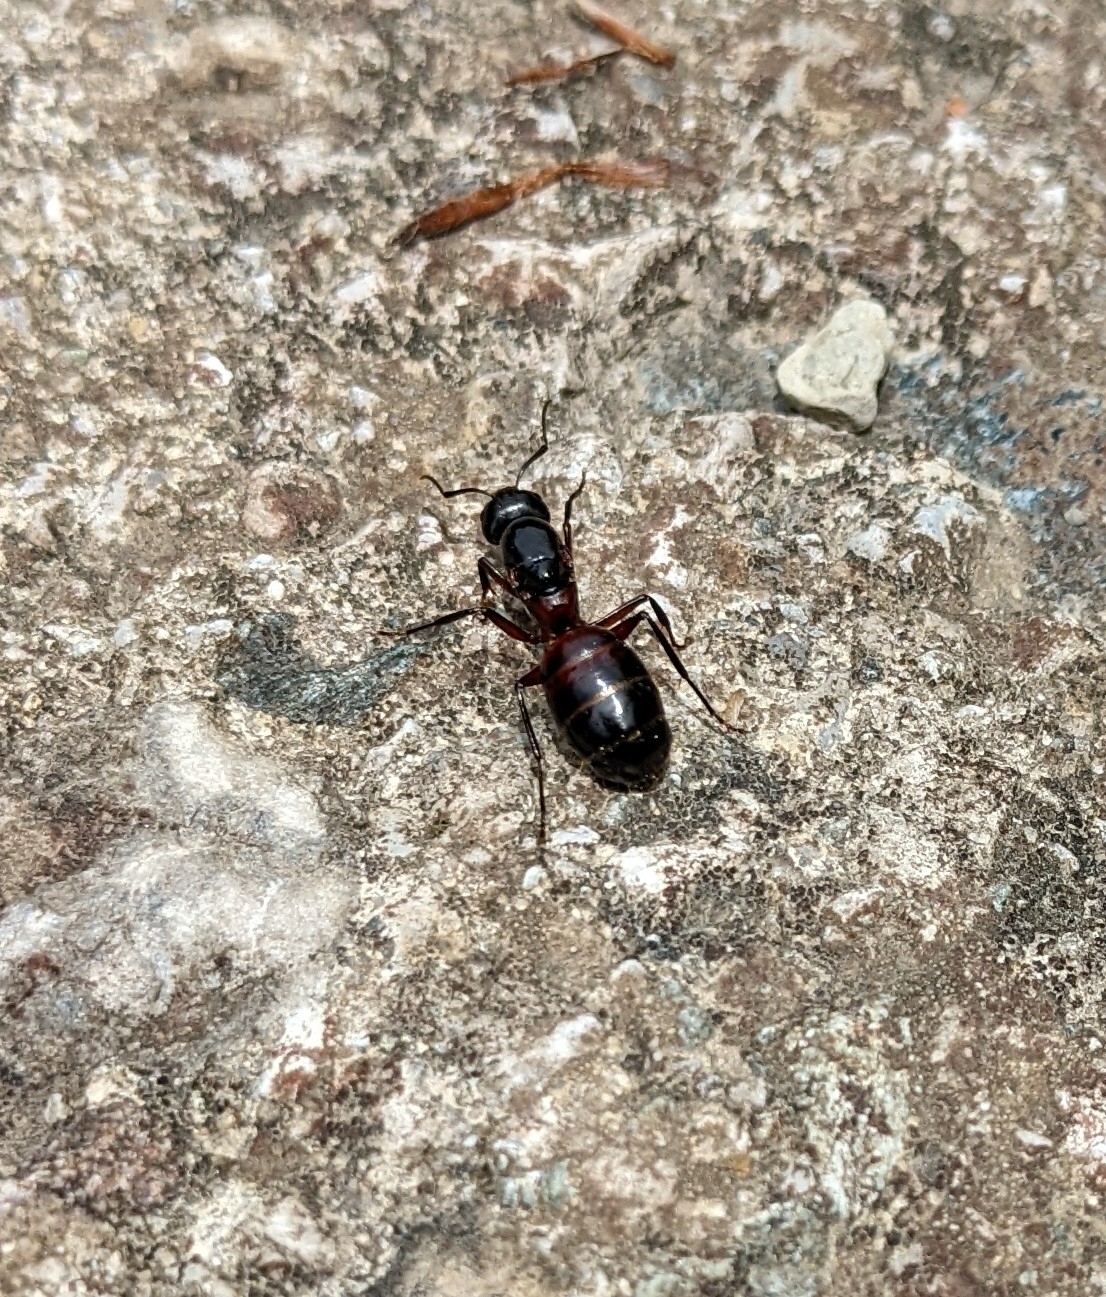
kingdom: Animalia
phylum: Arthropoda
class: Insecta
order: Hymenoptera
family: Formicidae
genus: Camponotus
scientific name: Camponotus ligniperdus
